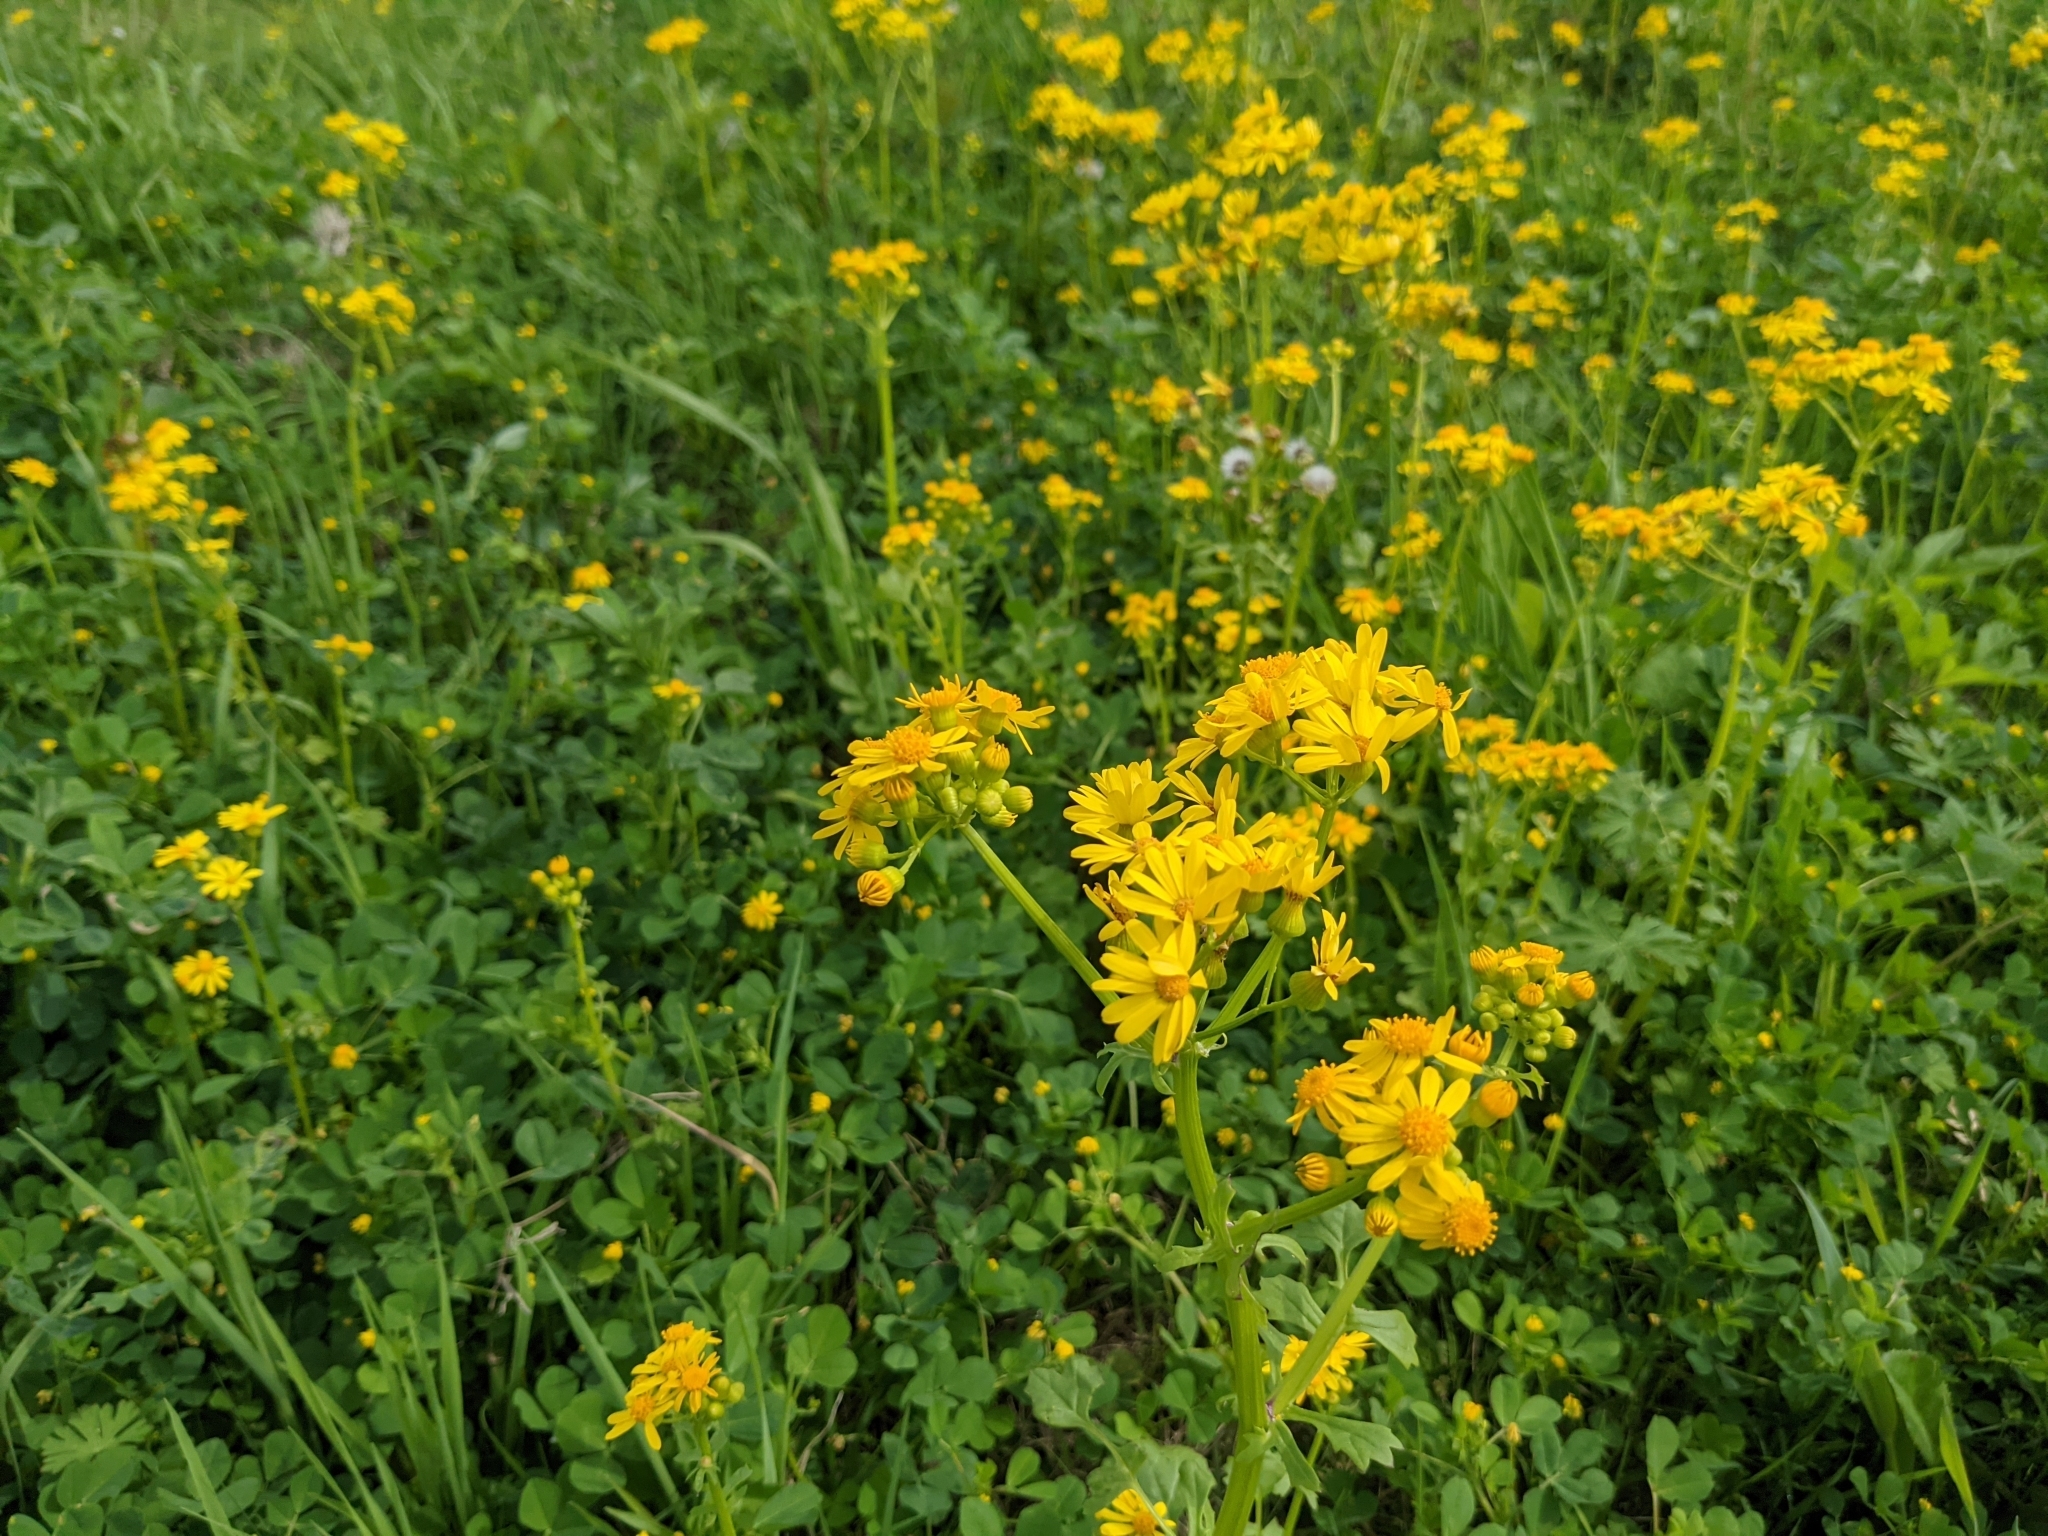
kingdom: Plantae
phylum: Tracheophyta
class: Magnoliopsida
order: Asterales
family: Asteraceae
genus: Packera
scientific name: Packera glabella
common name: Butterweed
